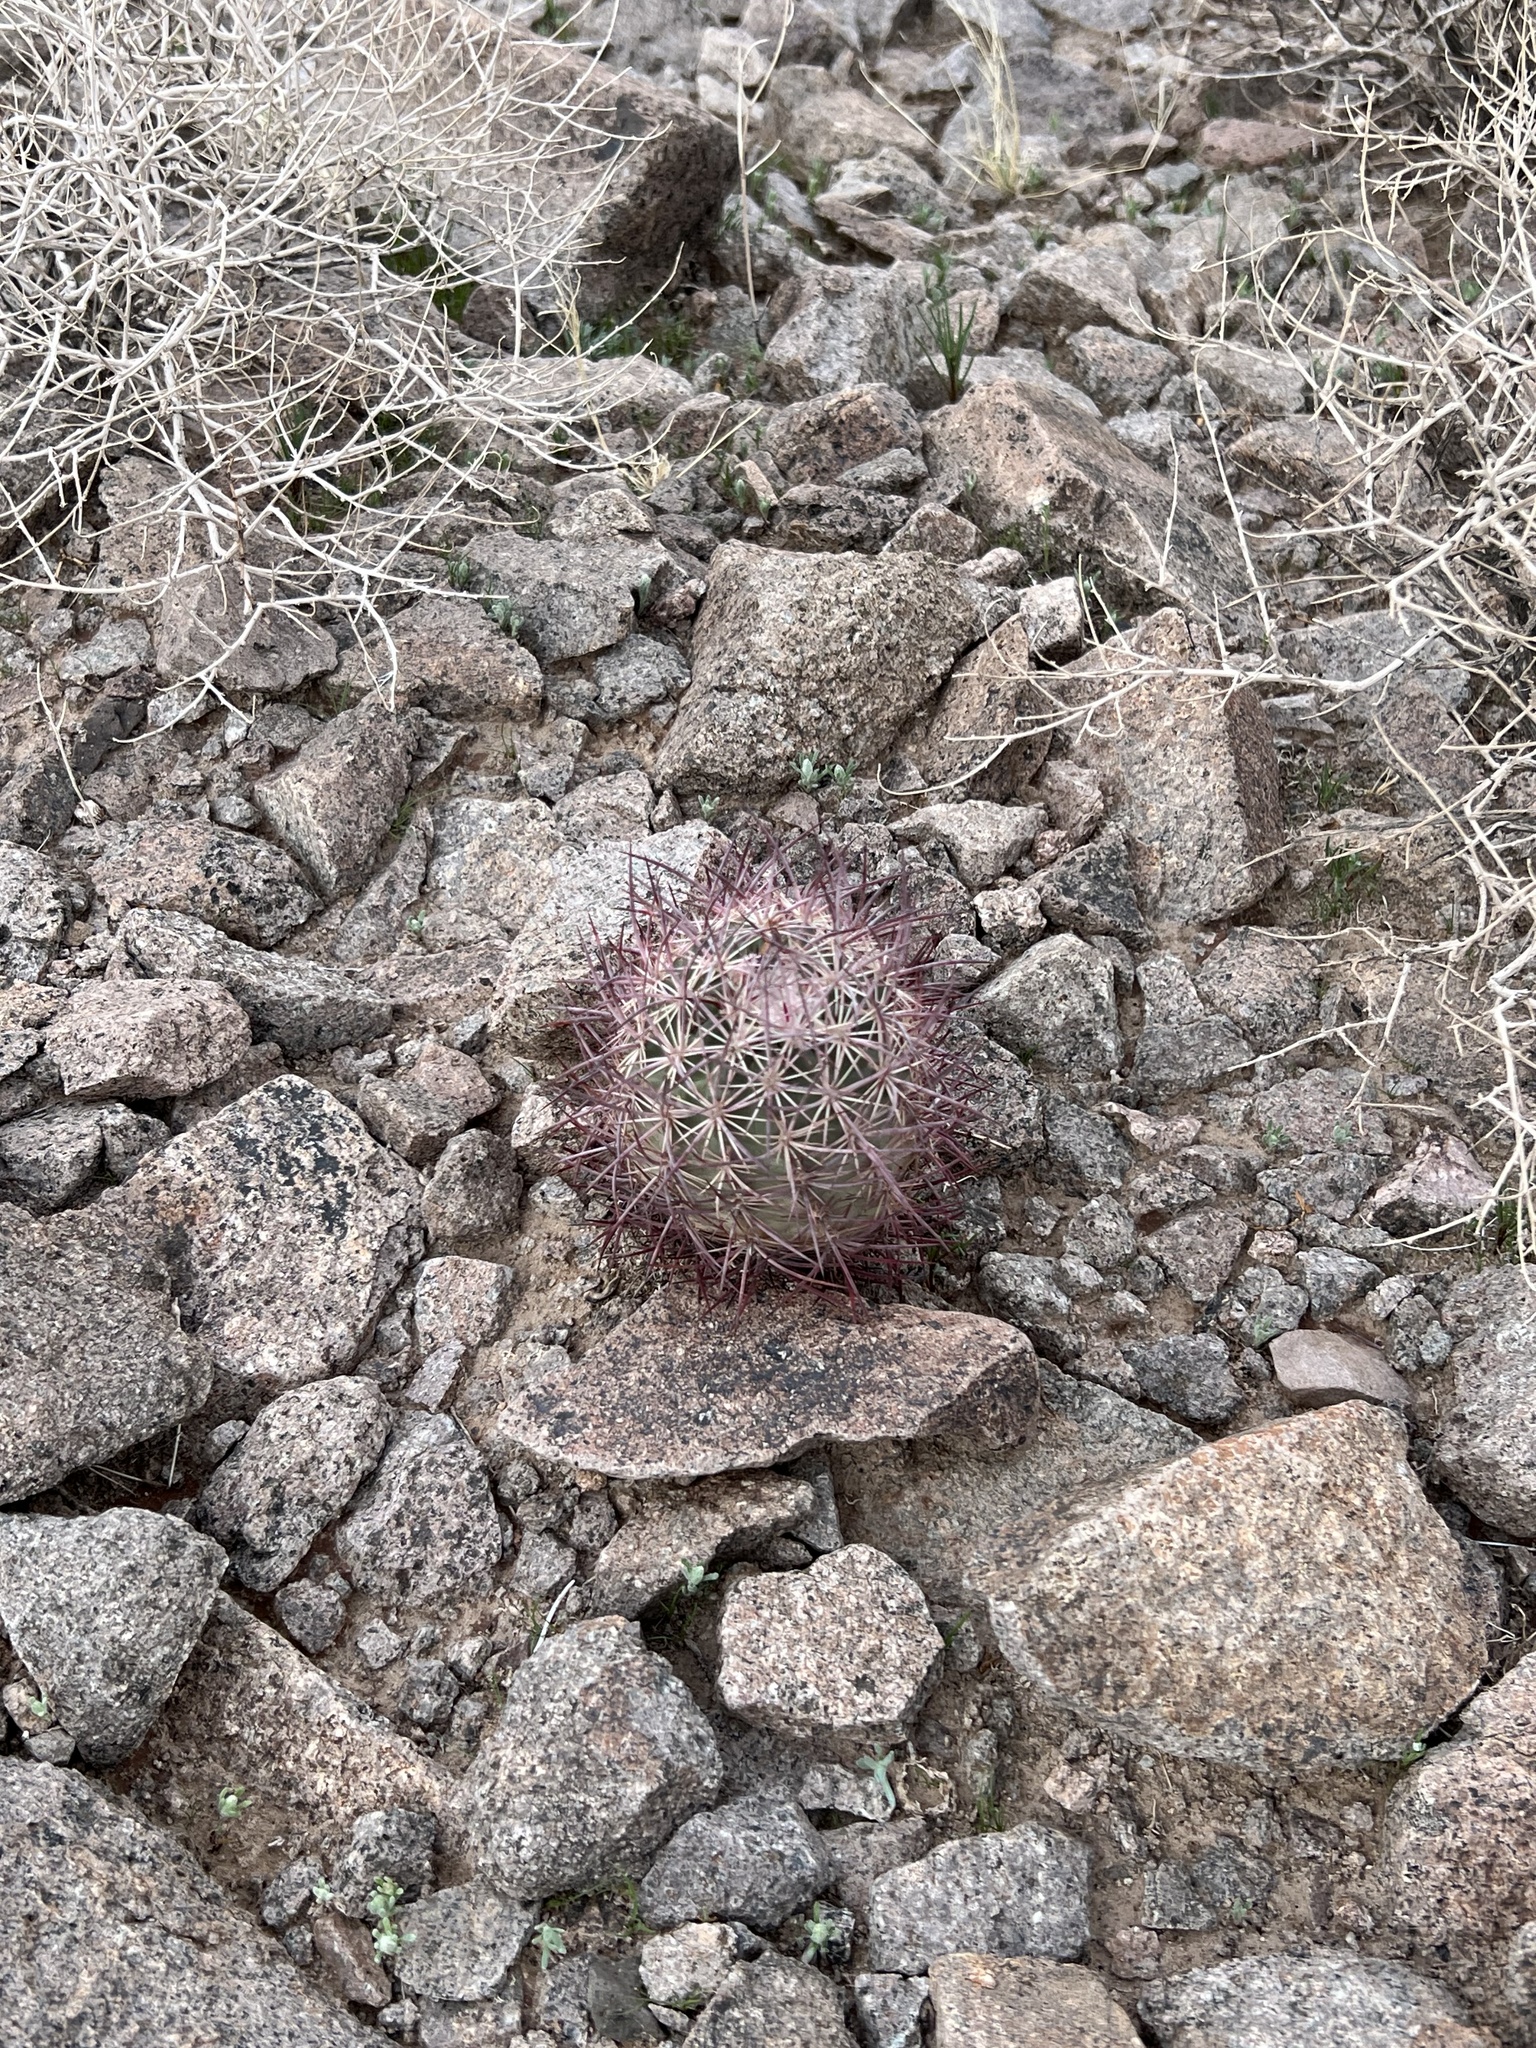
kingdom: Plantae
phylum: Tracheophyta
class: Magnoliopsida
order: Caryophyllales
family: Cactaceae
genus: Sclerocactus
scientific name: Sclerocactus johnsonii
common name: Eight-spine fishhook cactus
